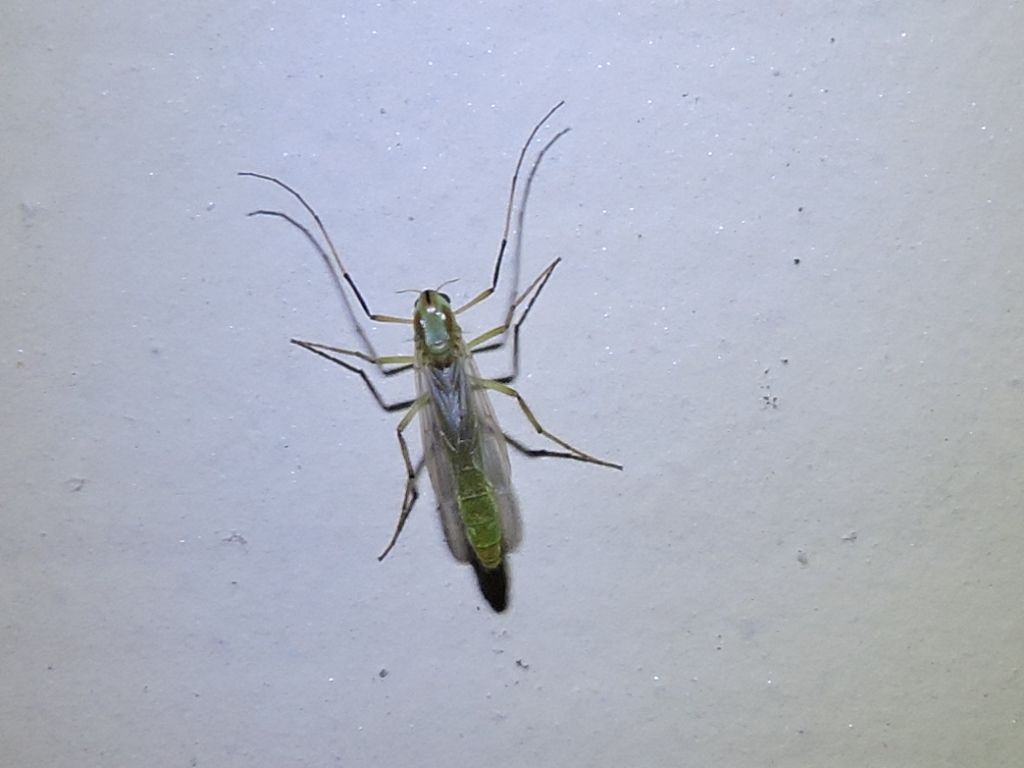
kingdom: Animalia
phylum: Arthropoda
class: Insecta
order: Diptera
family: Chironomidae
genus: Axarus
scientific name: Axarus
